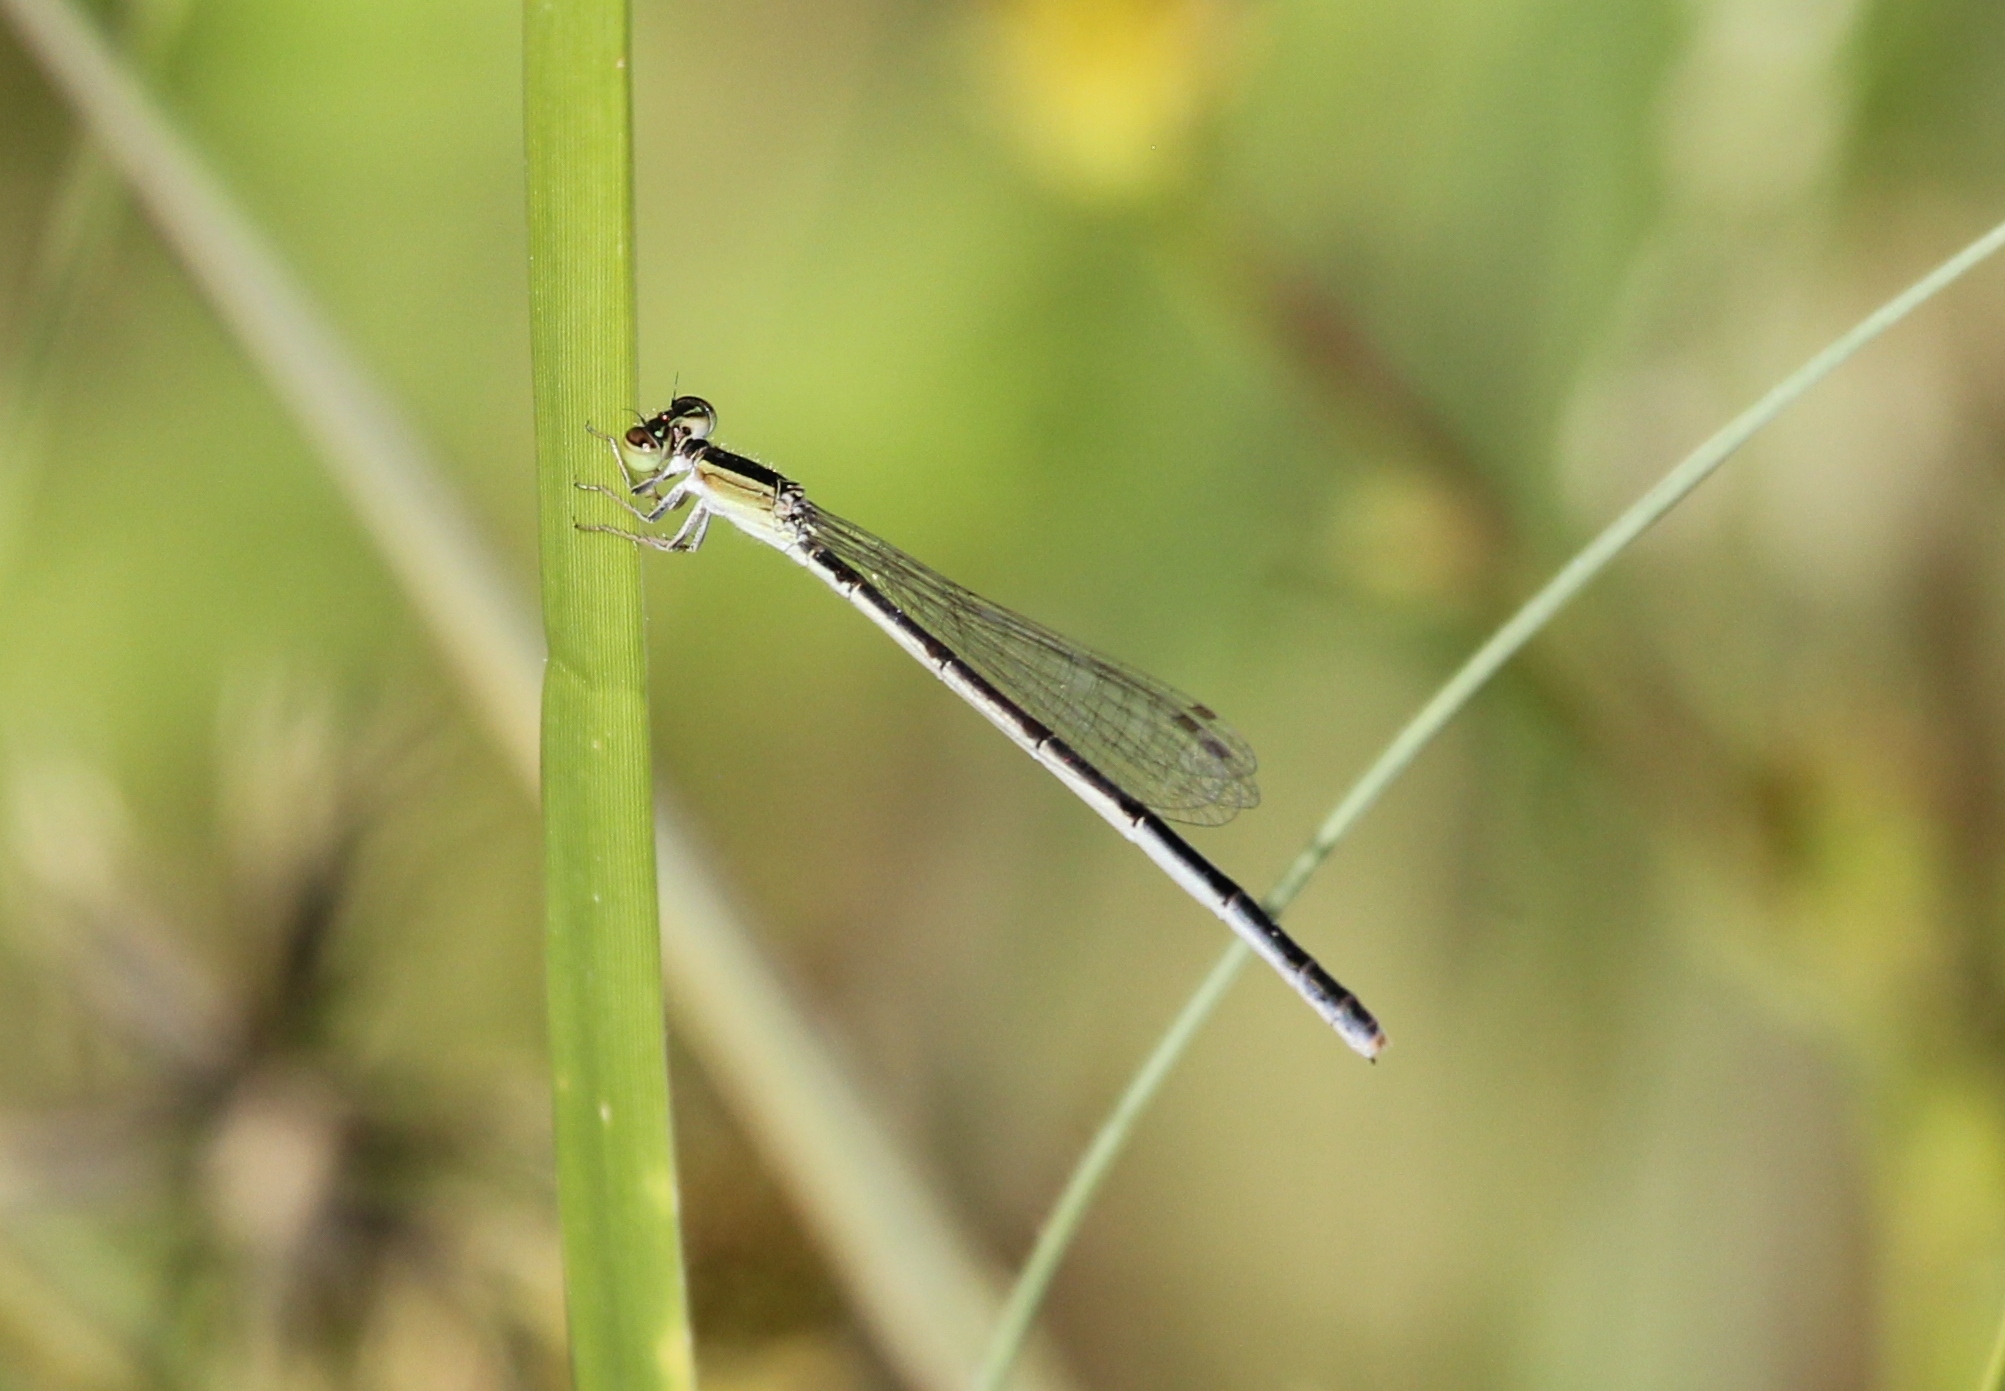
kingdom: Animalia
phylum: Arthropoda
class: Insecta
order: Odonata
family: Coenagrionidae
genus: Ischnura
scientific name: Ischnura hastata
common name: Citrine forktail
